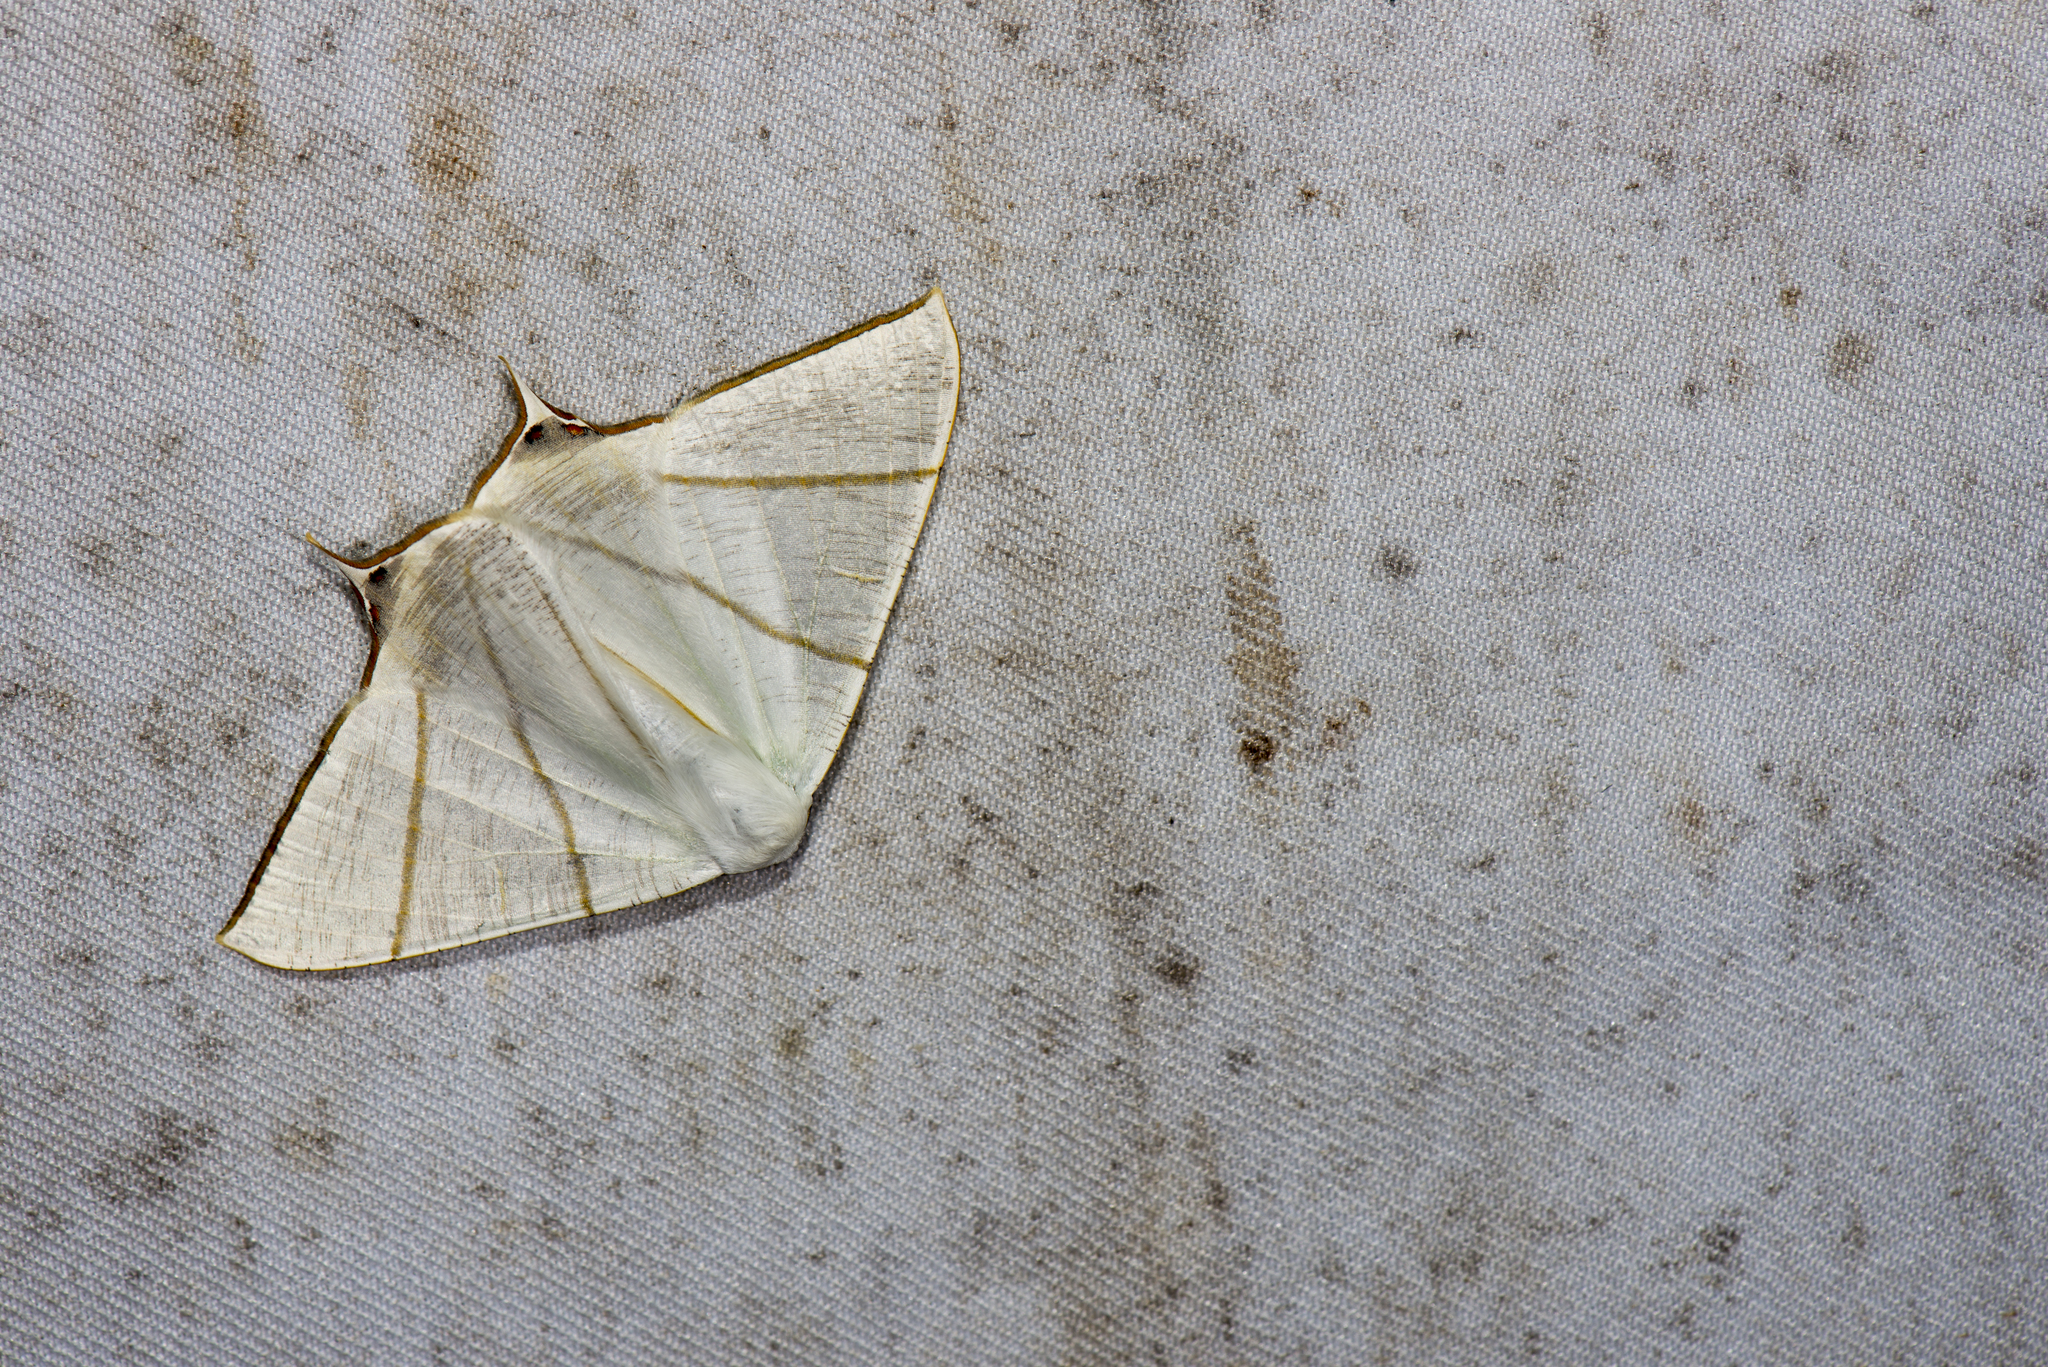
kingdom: Animalia
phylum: Arthropoda
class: Insecta
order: Lepidoptera
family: Geometridae
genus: Ourapteryx
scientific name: Ourapteryx changi
